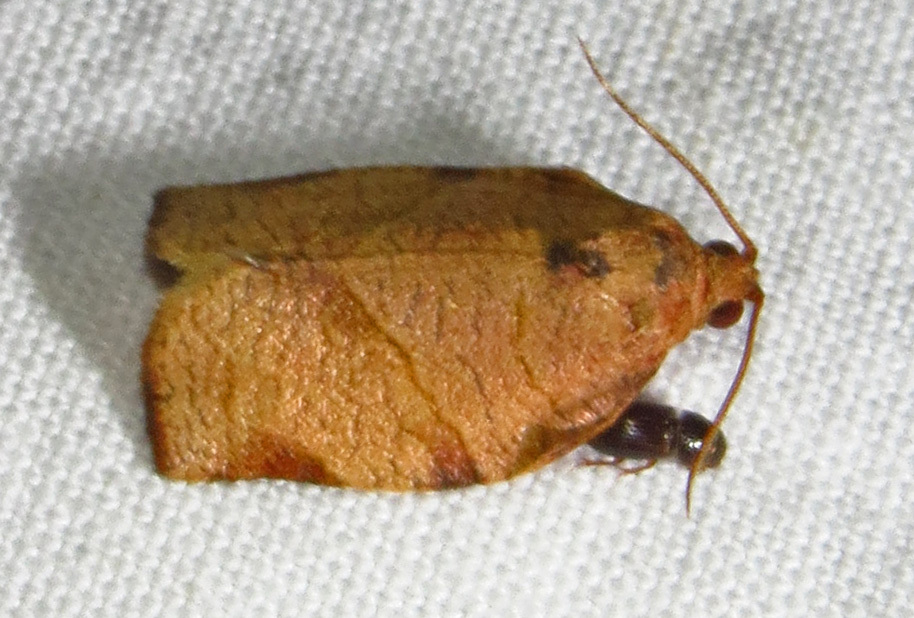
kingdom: Animalia
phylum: Arthropoda
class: Insecta
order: Lepidoptera
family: Tortricidae
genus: Choristoneura
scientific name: Choristoneura rosaceana
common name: Oblique-banded leafroller moth
